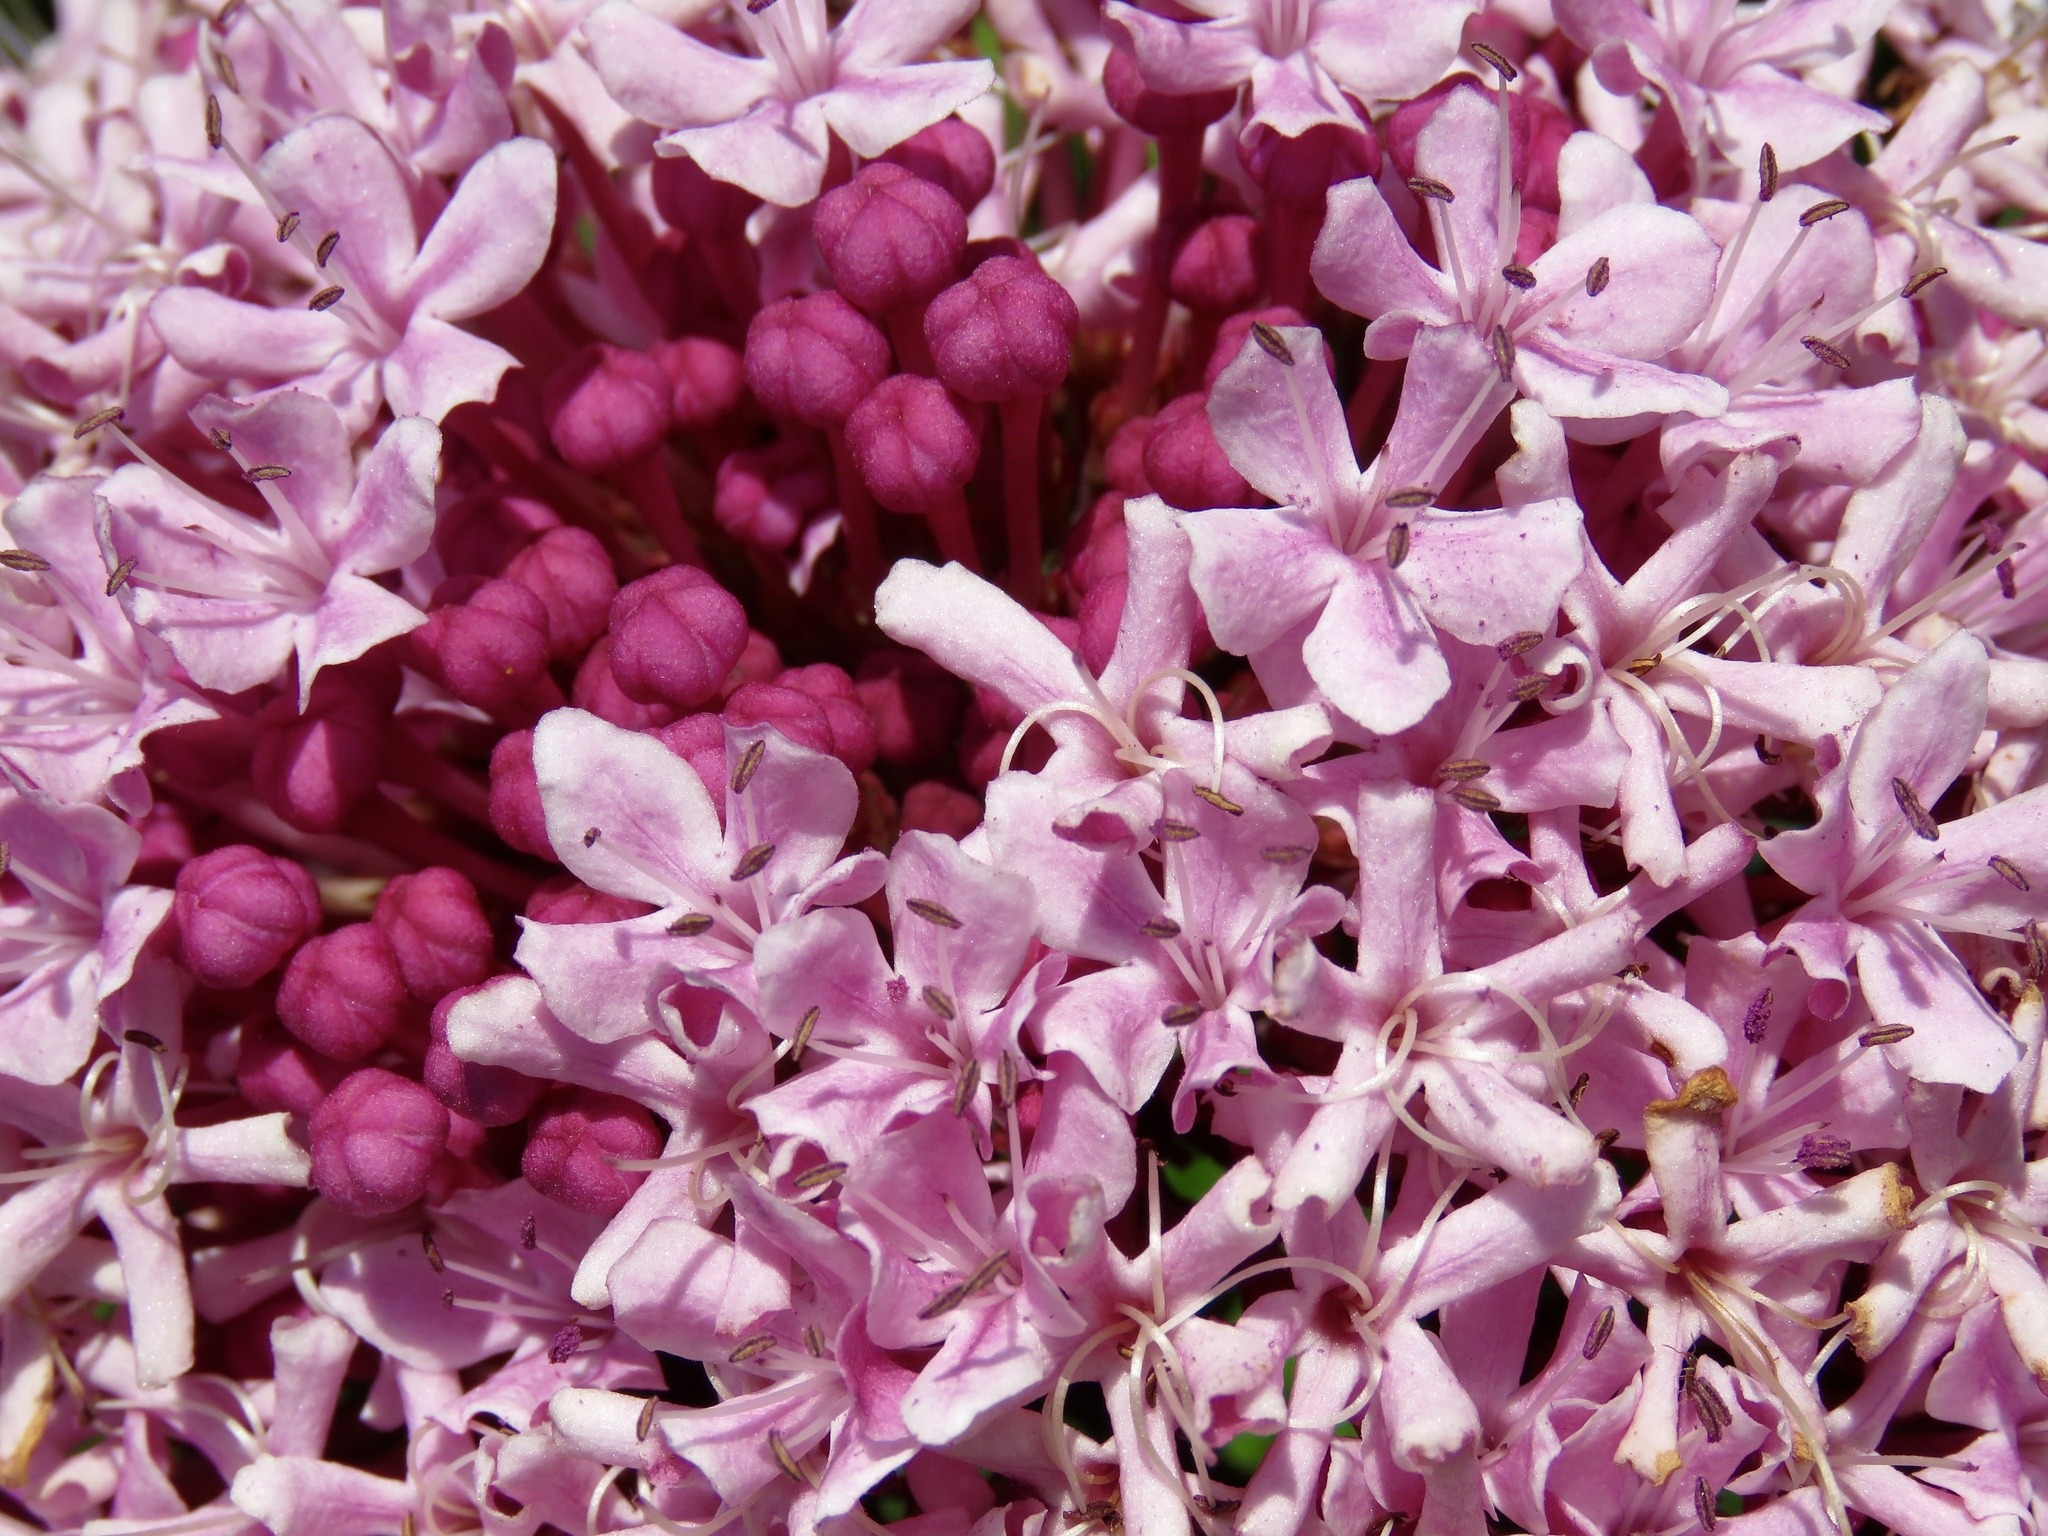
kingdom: Plantae
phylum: Tracheophyta
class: Magnoliopsida
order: Lamiales
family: Lamiaceae
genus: Clerodendrum
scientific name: Clerodendrum bungei
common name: Rose glorybower
